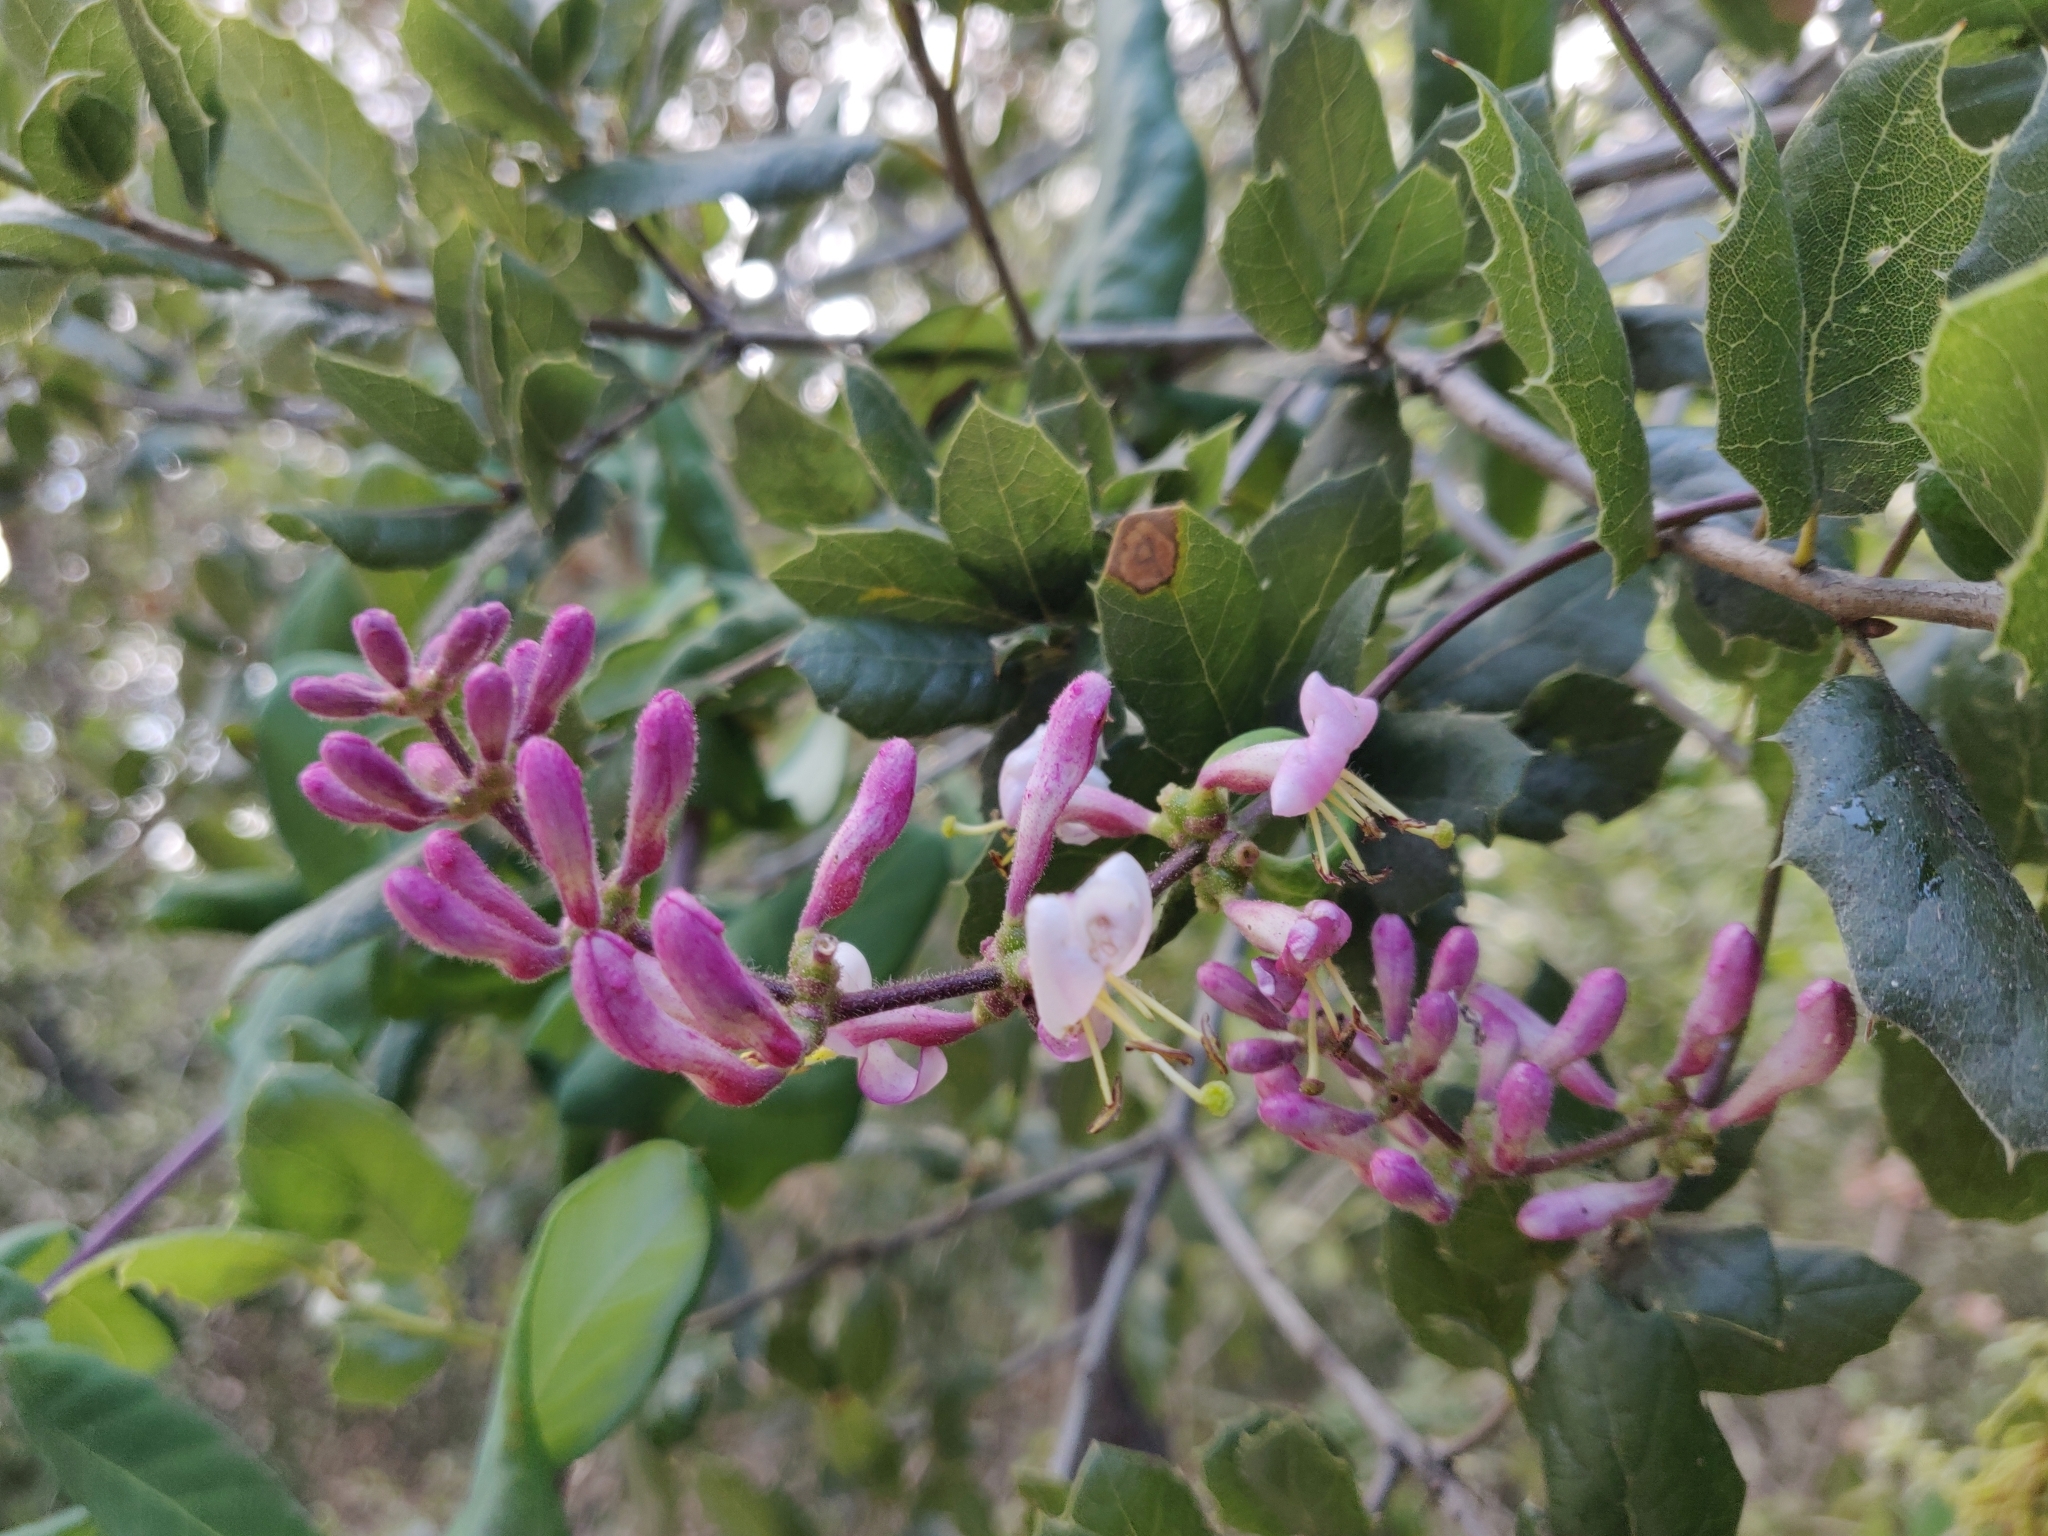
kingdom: Plantae
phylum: Tracheophyta
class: Magnoliopsida
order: Dipsacales
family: Caprifoliaceae
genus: Lonicera
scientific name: Lonicera hispidula
